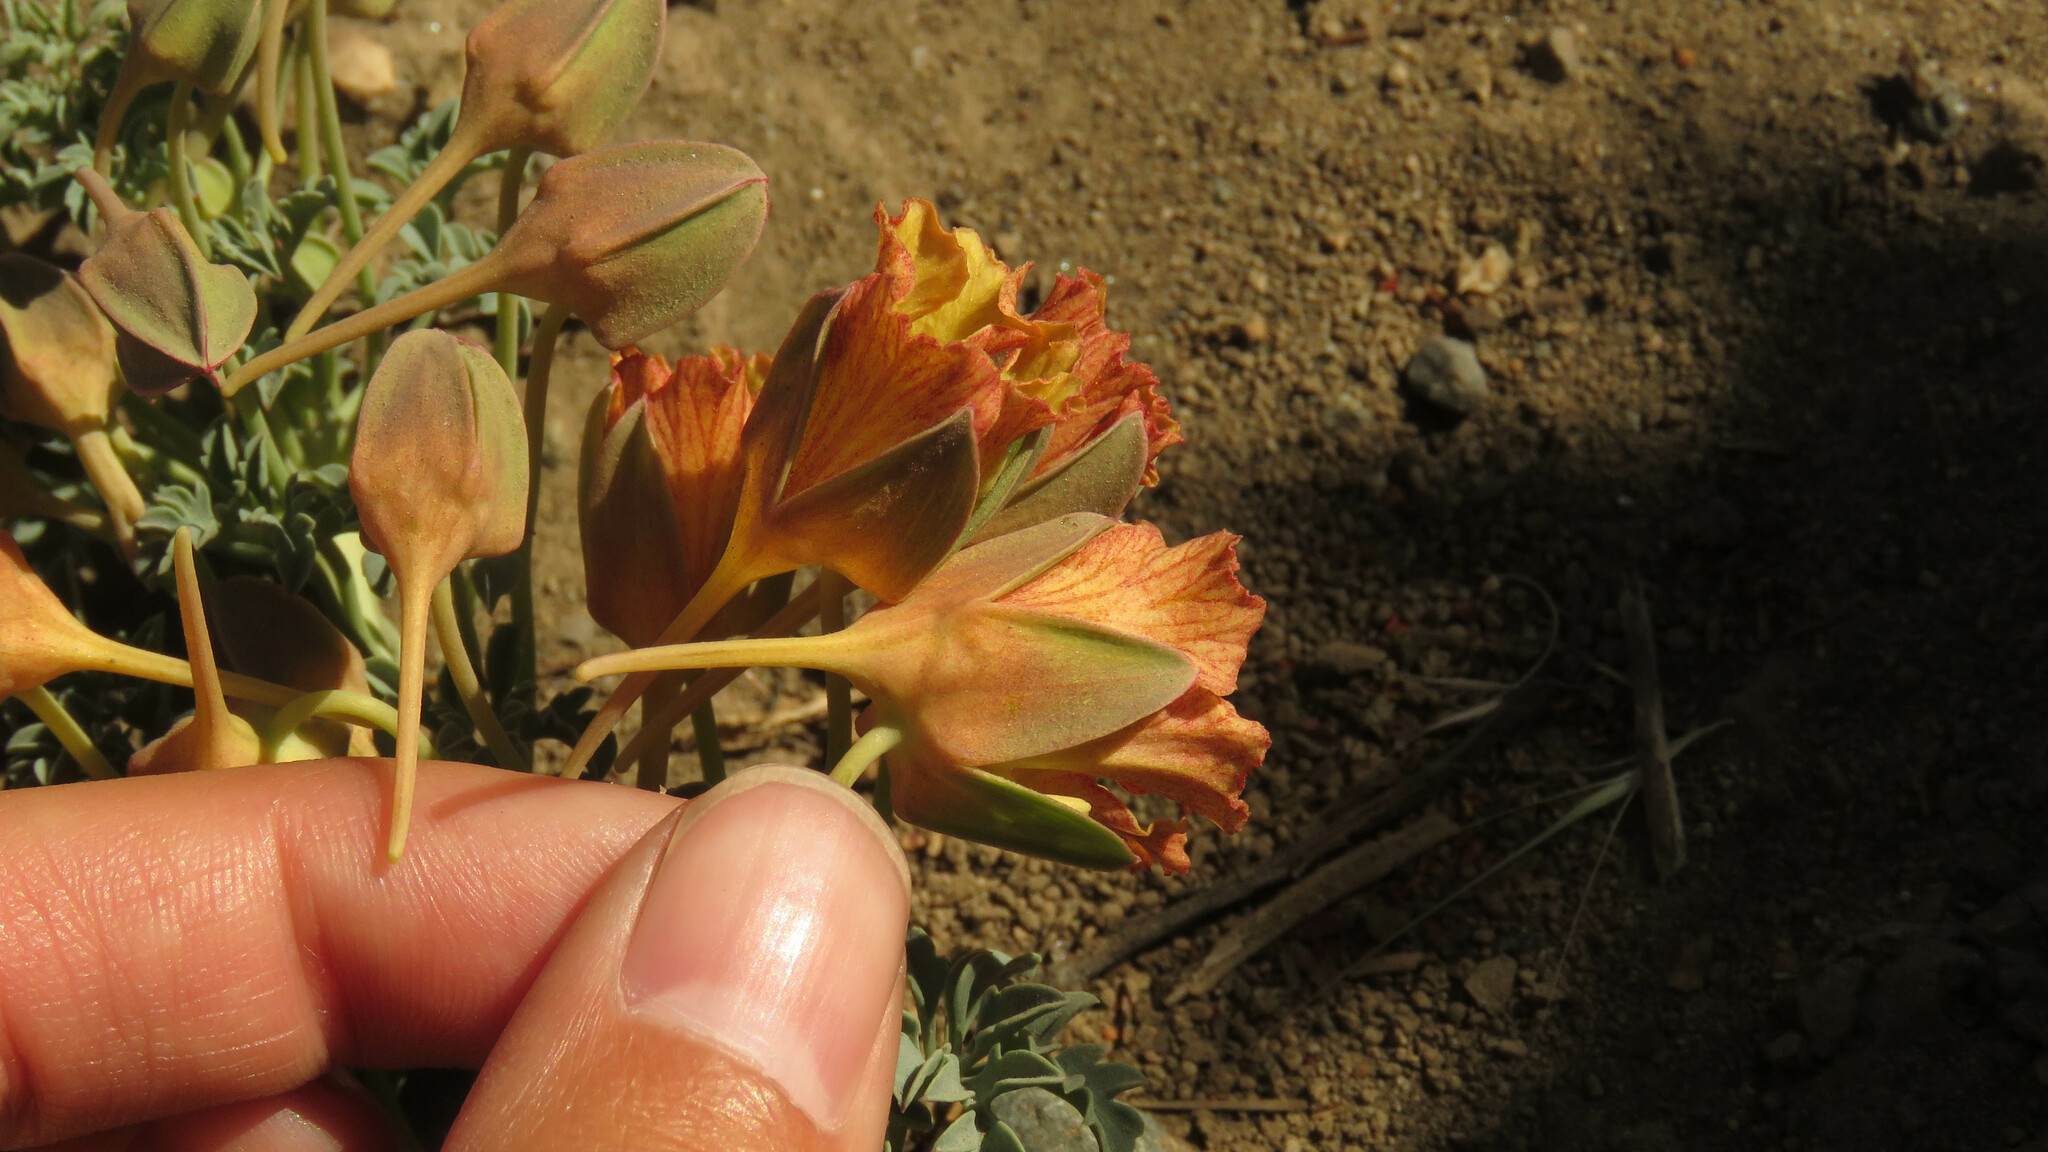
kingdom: Plantae
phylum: Tracheophyta
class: Magnoliopsida
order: Brassicales
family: Tropaeolaceae
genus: Tropaeolum
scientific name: Tropaeolum incisum
